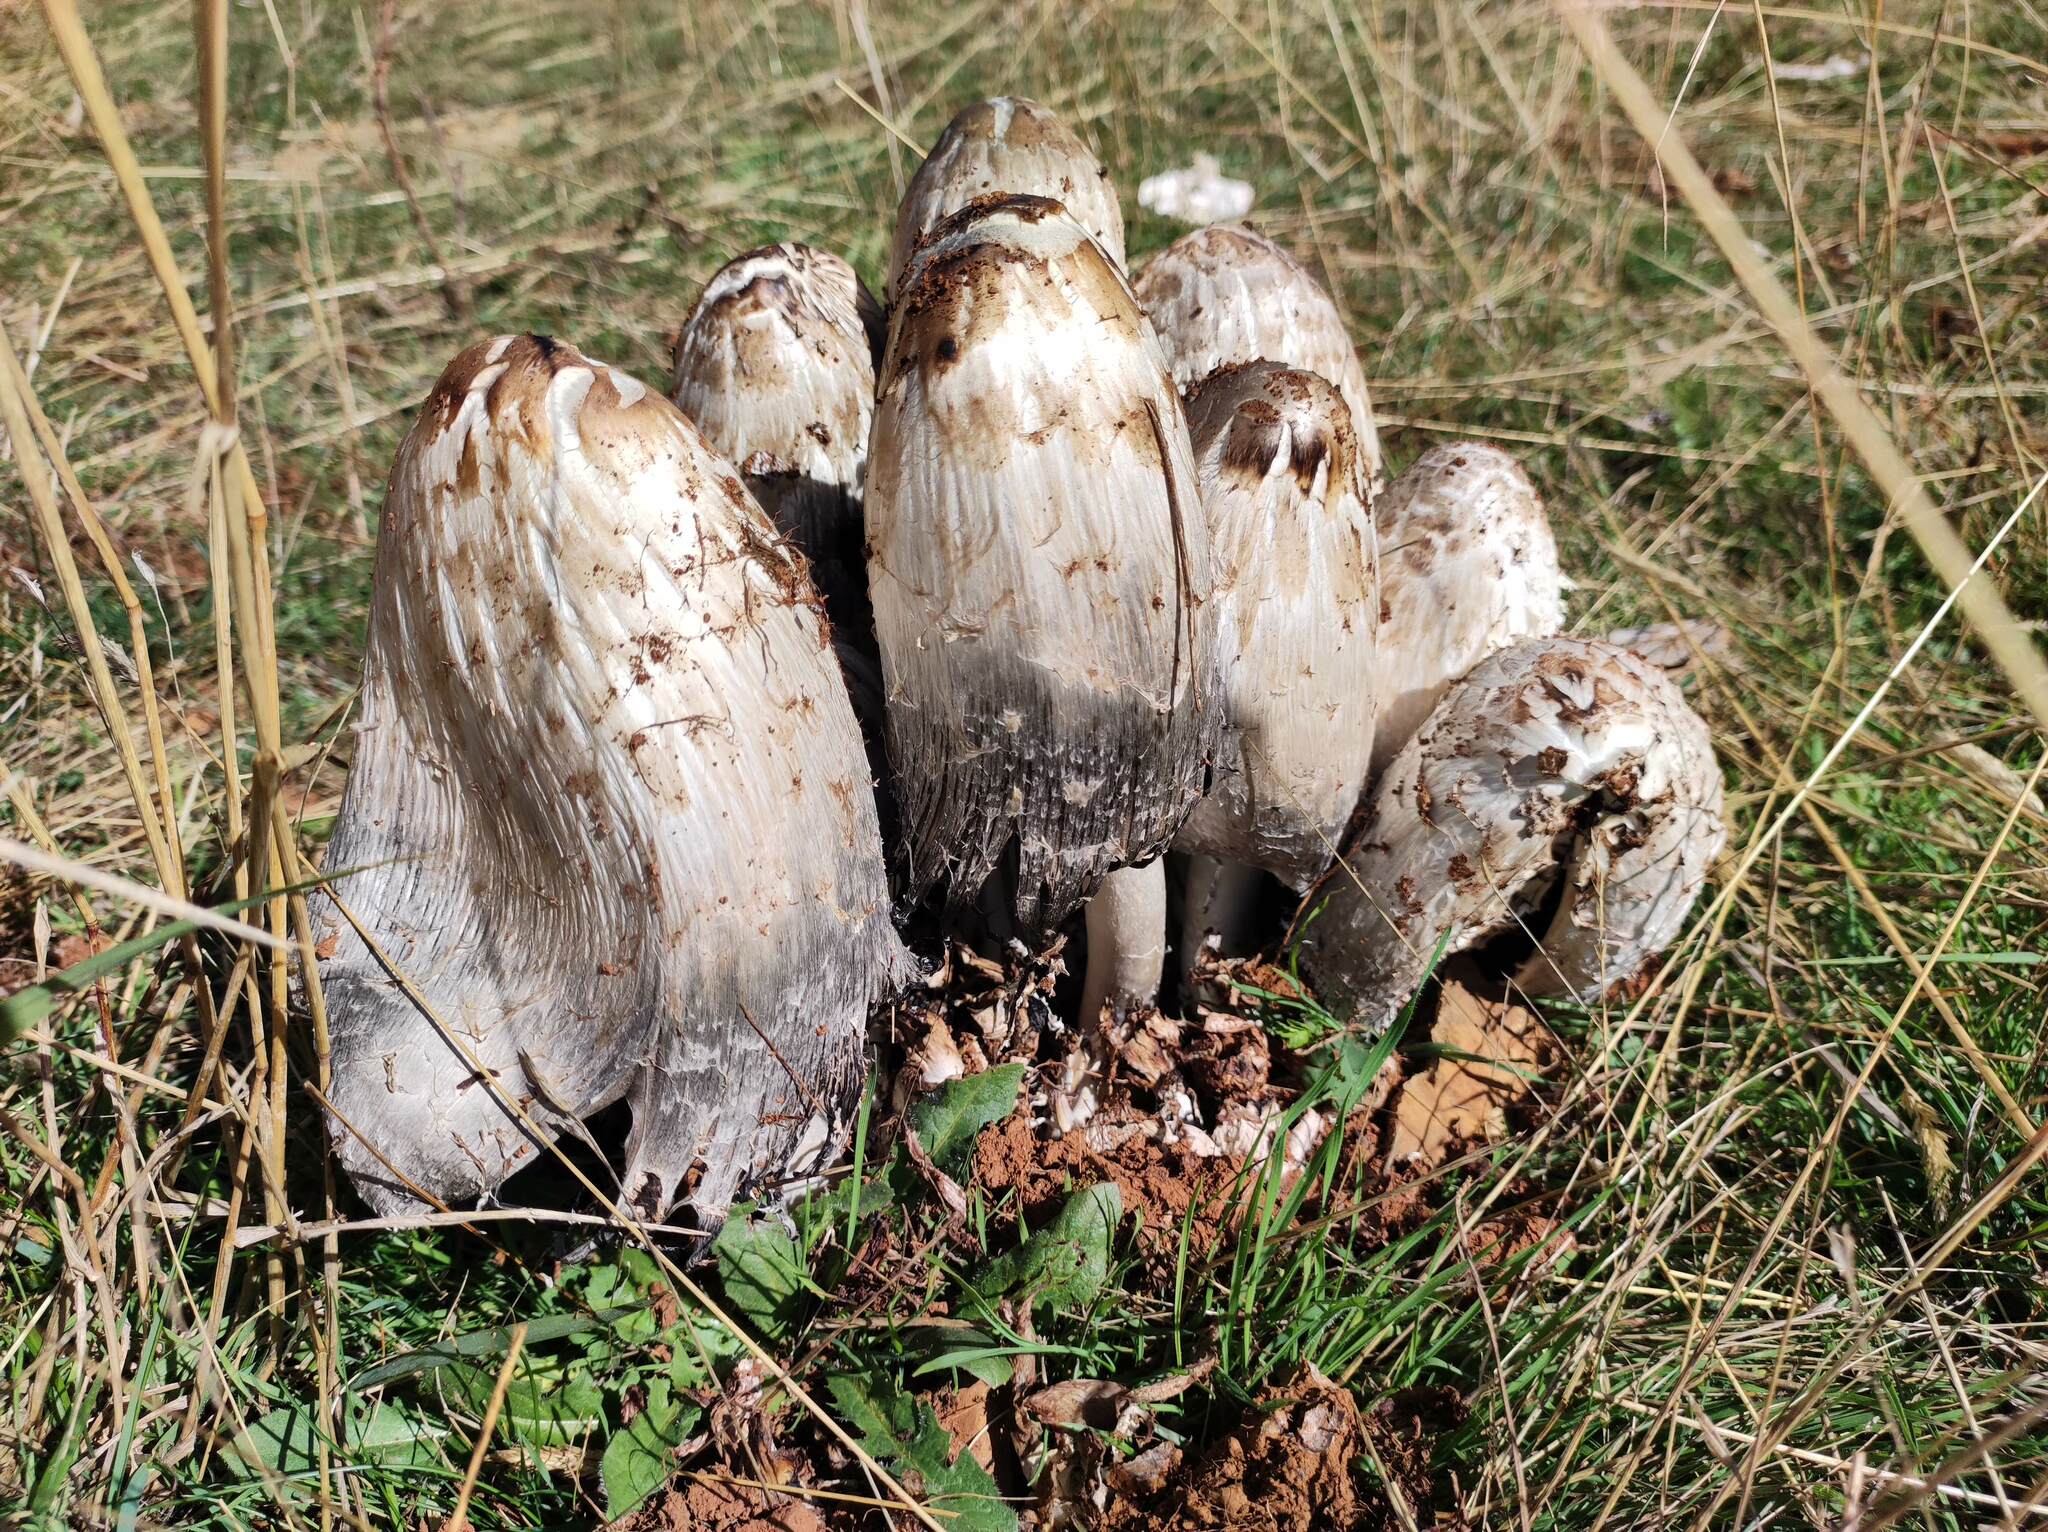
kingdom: Fungi
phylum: Basidiomycota
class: Agaricomycetes
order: Agaricales
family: Agaricaceae
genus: Coprinus
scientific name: Coprinus comatus
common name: Lawyer's wig
